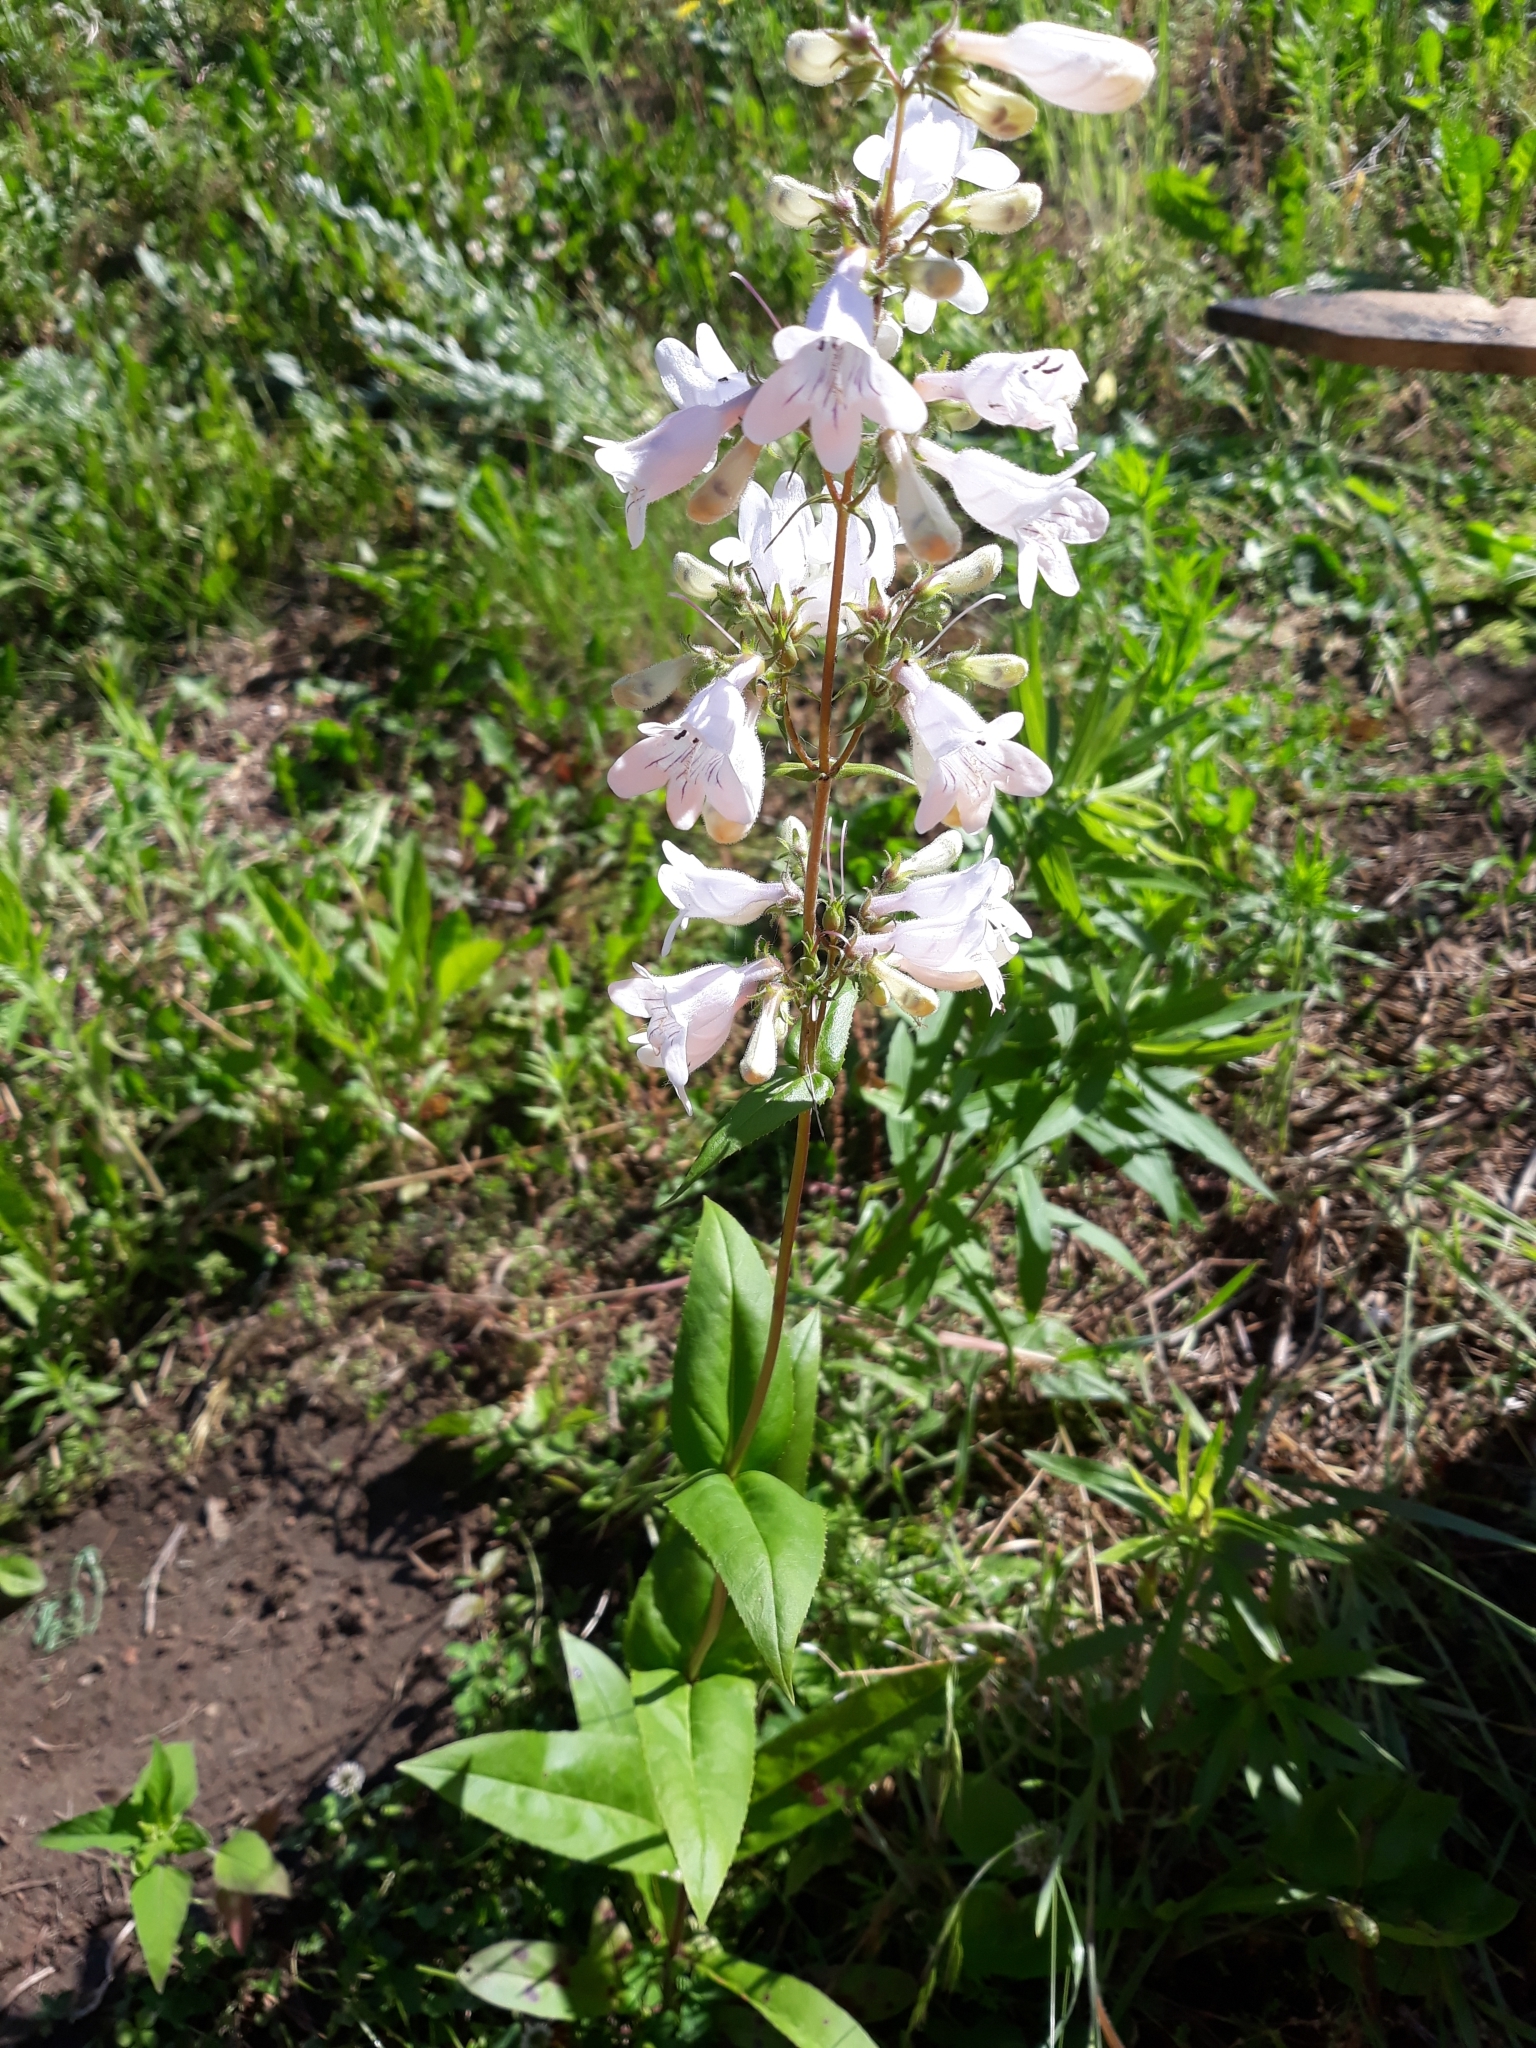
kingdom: Plantae
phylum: Tracheophyta
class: Magnoliopsida
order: Lamiales
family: Plantaginaceae
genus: Penstemon
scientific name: Penstemon digitalis
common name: Foxglove beardtongue
